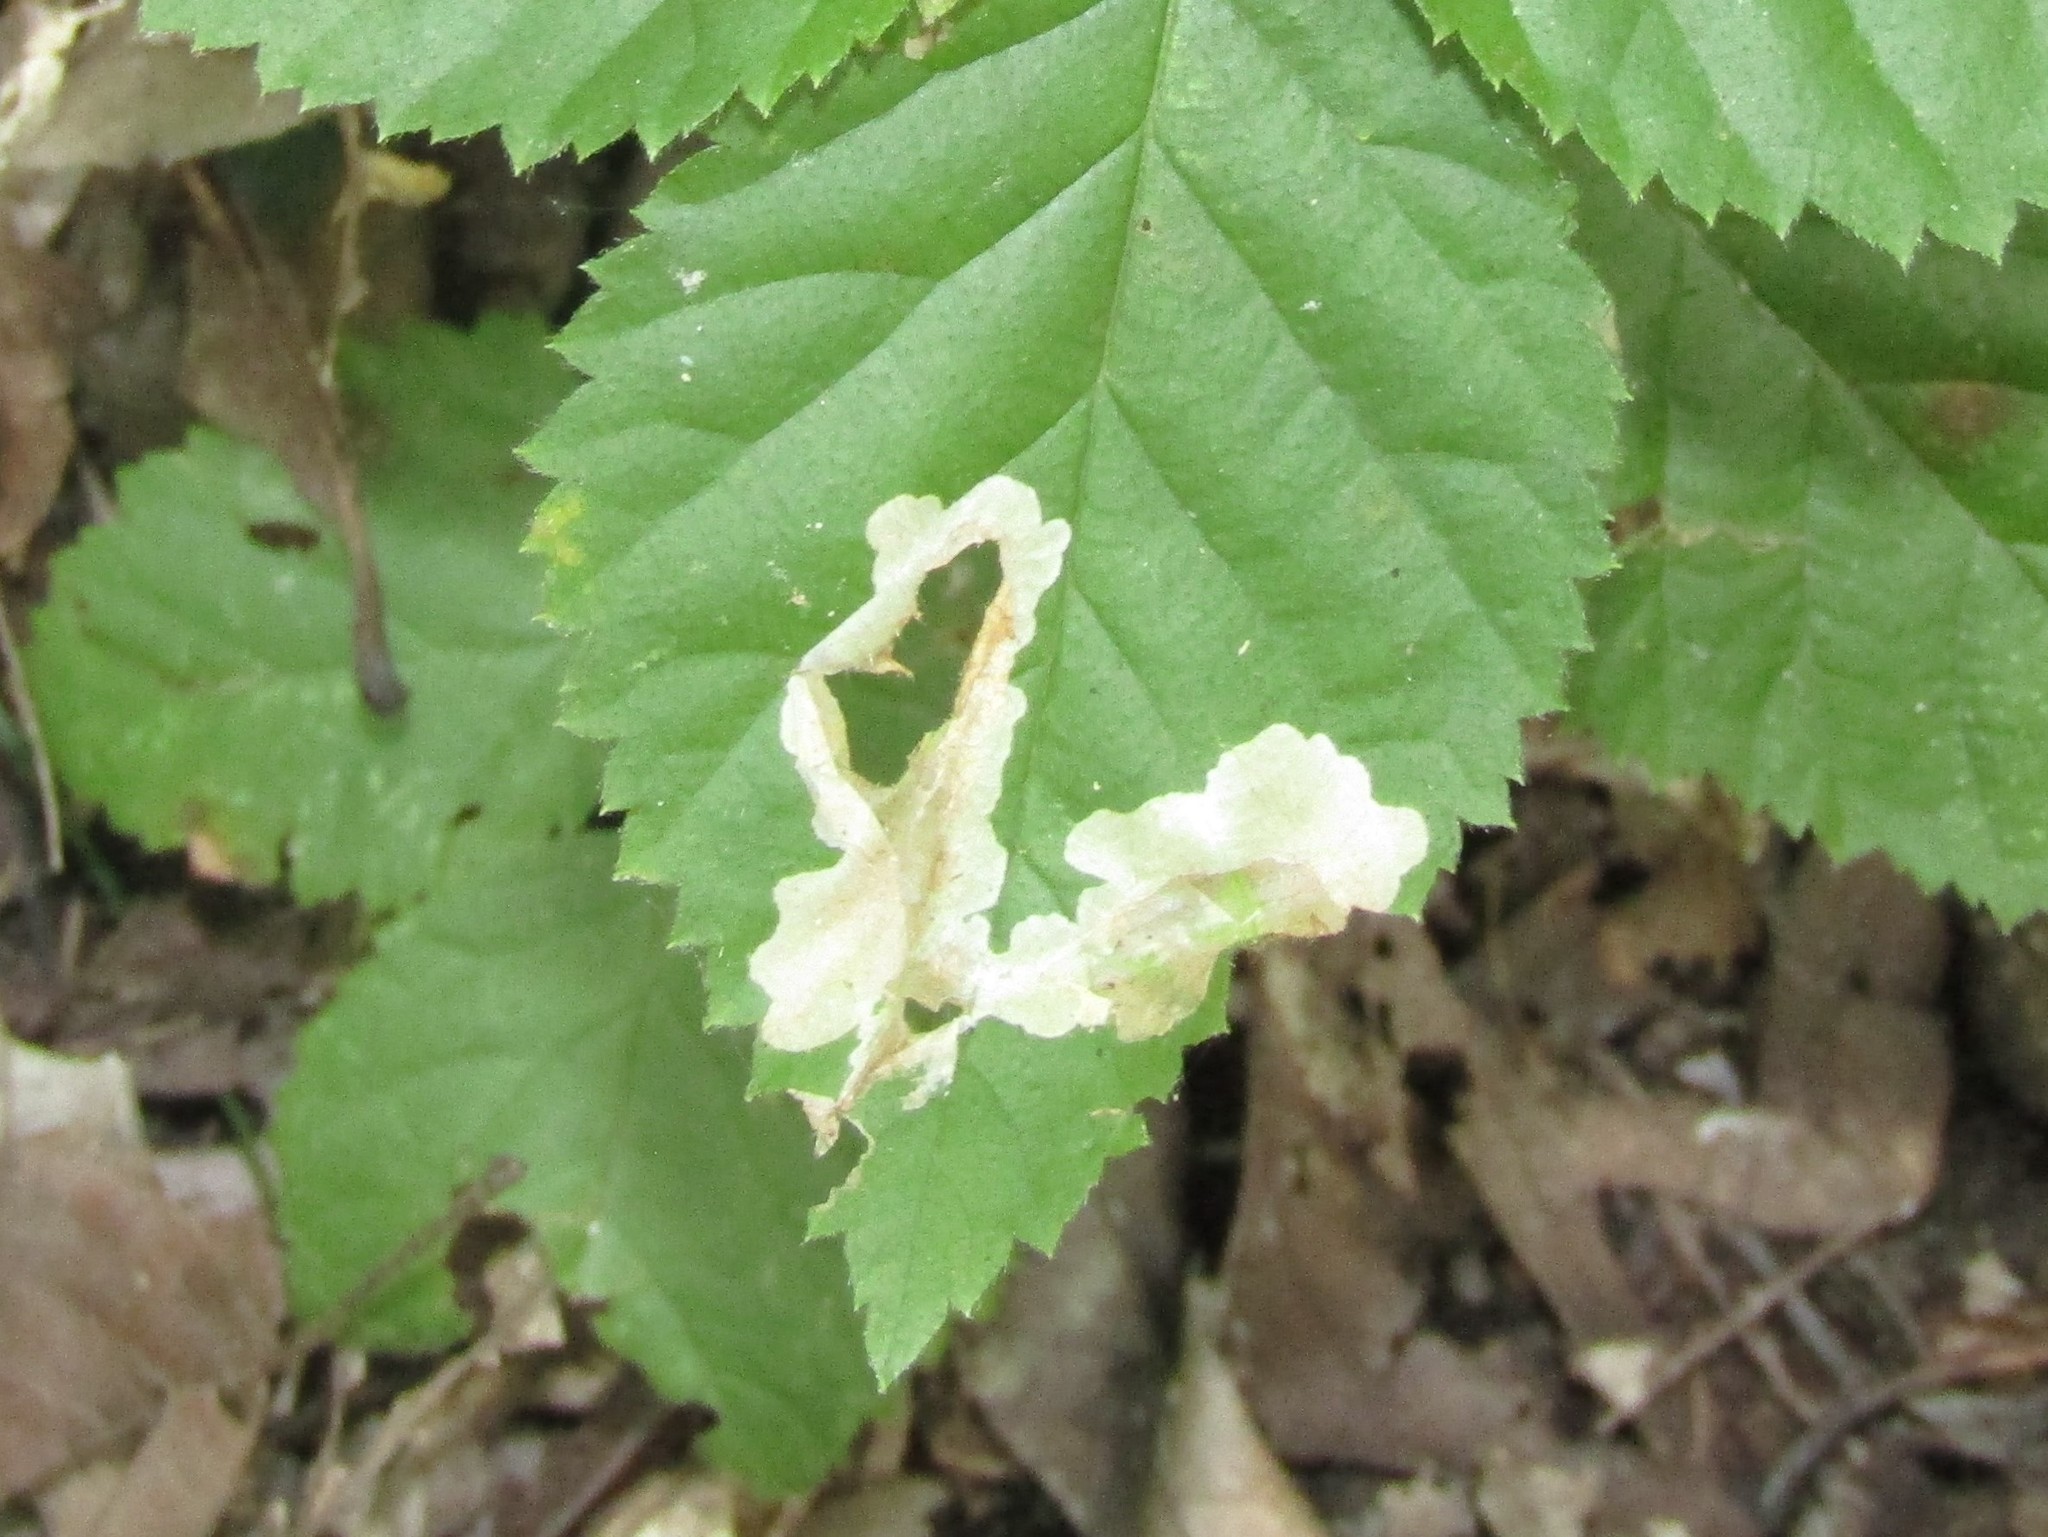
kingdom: Animalia
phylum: Arthropoda
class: Insecta
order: Lepidoptera
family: Tischeriidae
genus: Coptotriche
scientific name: Coptotriche aenea
